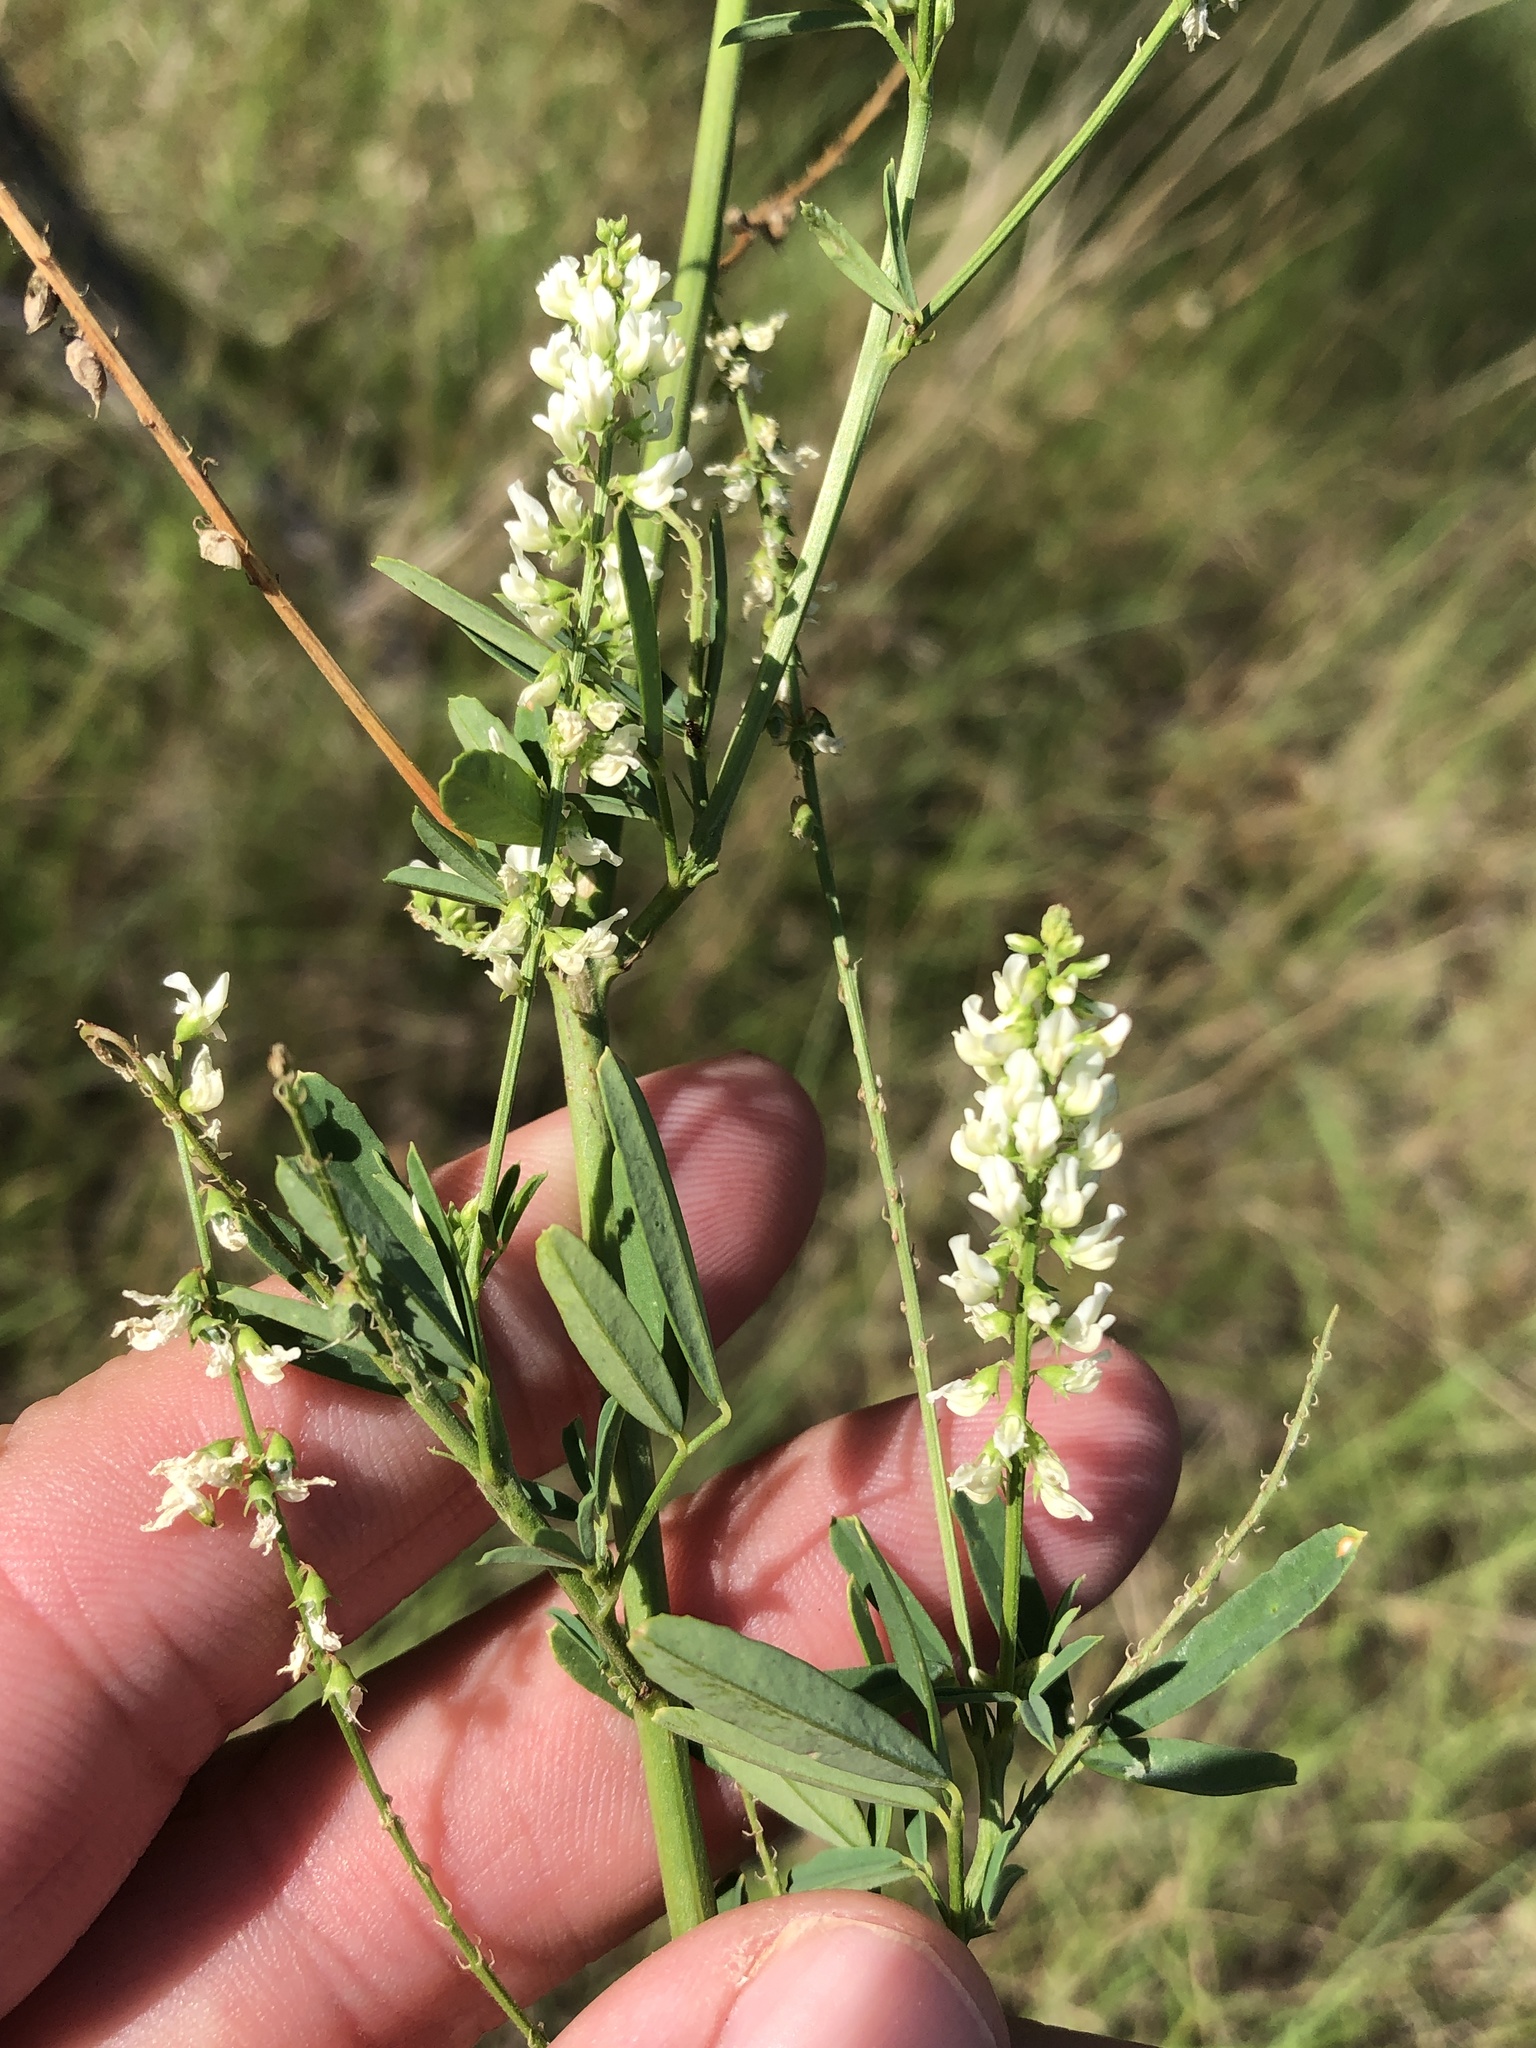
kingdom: Plantae
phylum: Tracheophyta
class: Magnoliopsida
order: Fabales
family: Fabaceae
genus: Melilotus
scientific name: Melilotus albus
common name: White melilot
